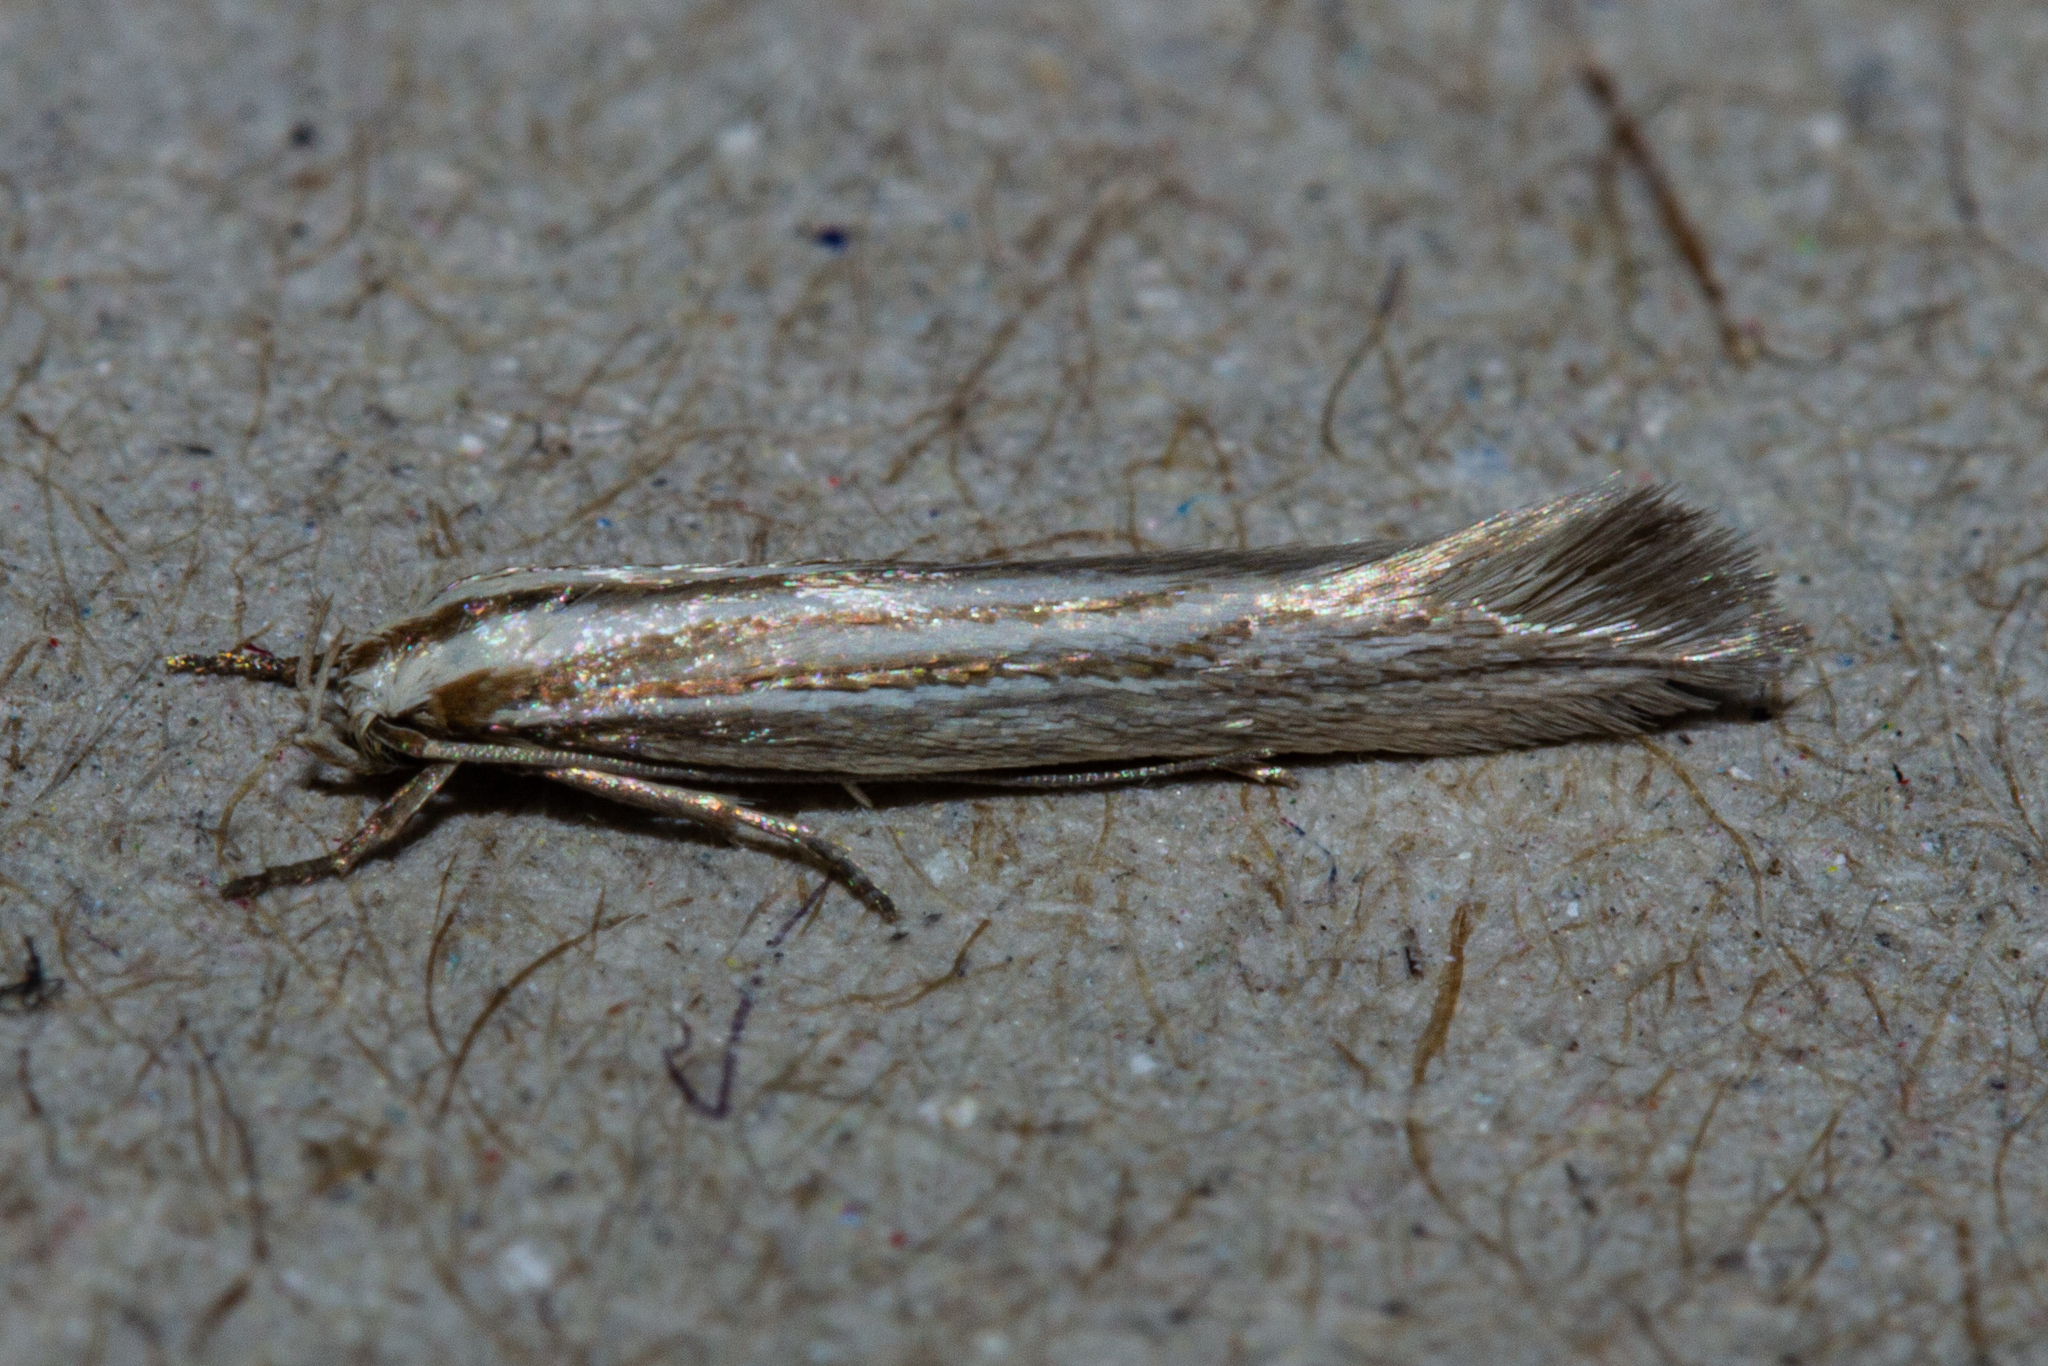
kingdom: Animalia
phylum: Arthropoda
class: Insecta
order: Lepidoptera
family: Elachistidae
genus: Elachista
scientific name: Elachista thallophora
